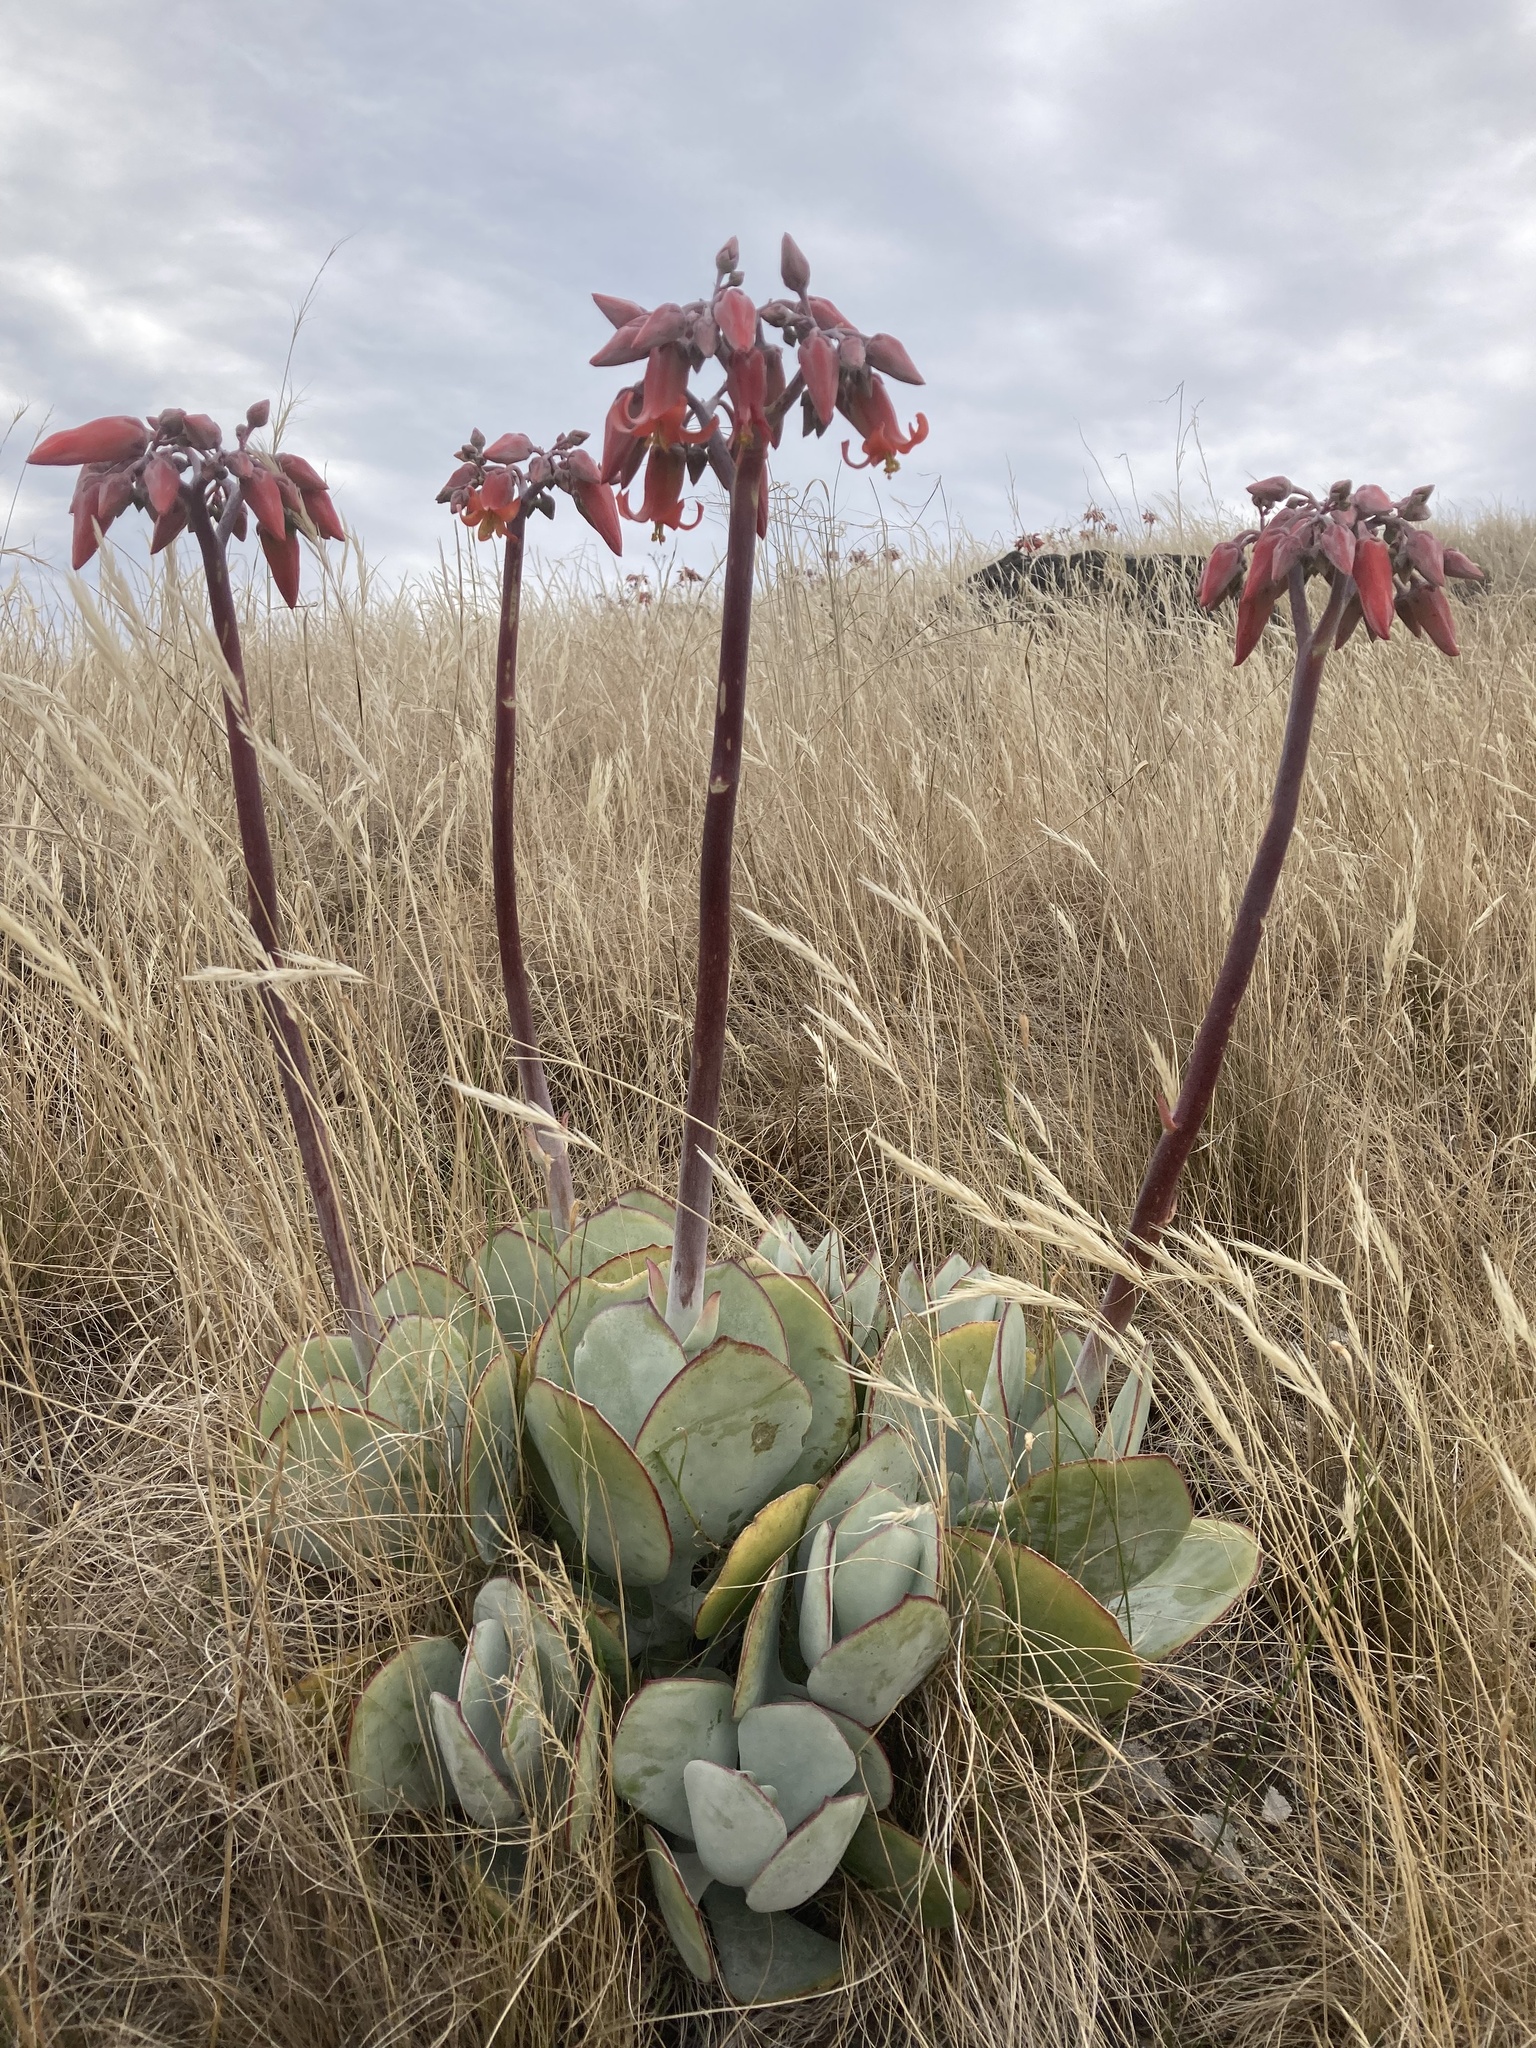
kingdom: Plantae
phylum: Tracheophyta
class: Magnoliopsida
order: Saxifragales
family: Crassulaceae
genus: Cotyledon
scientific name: Cotyledon orbiculata
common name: Pig's ear
